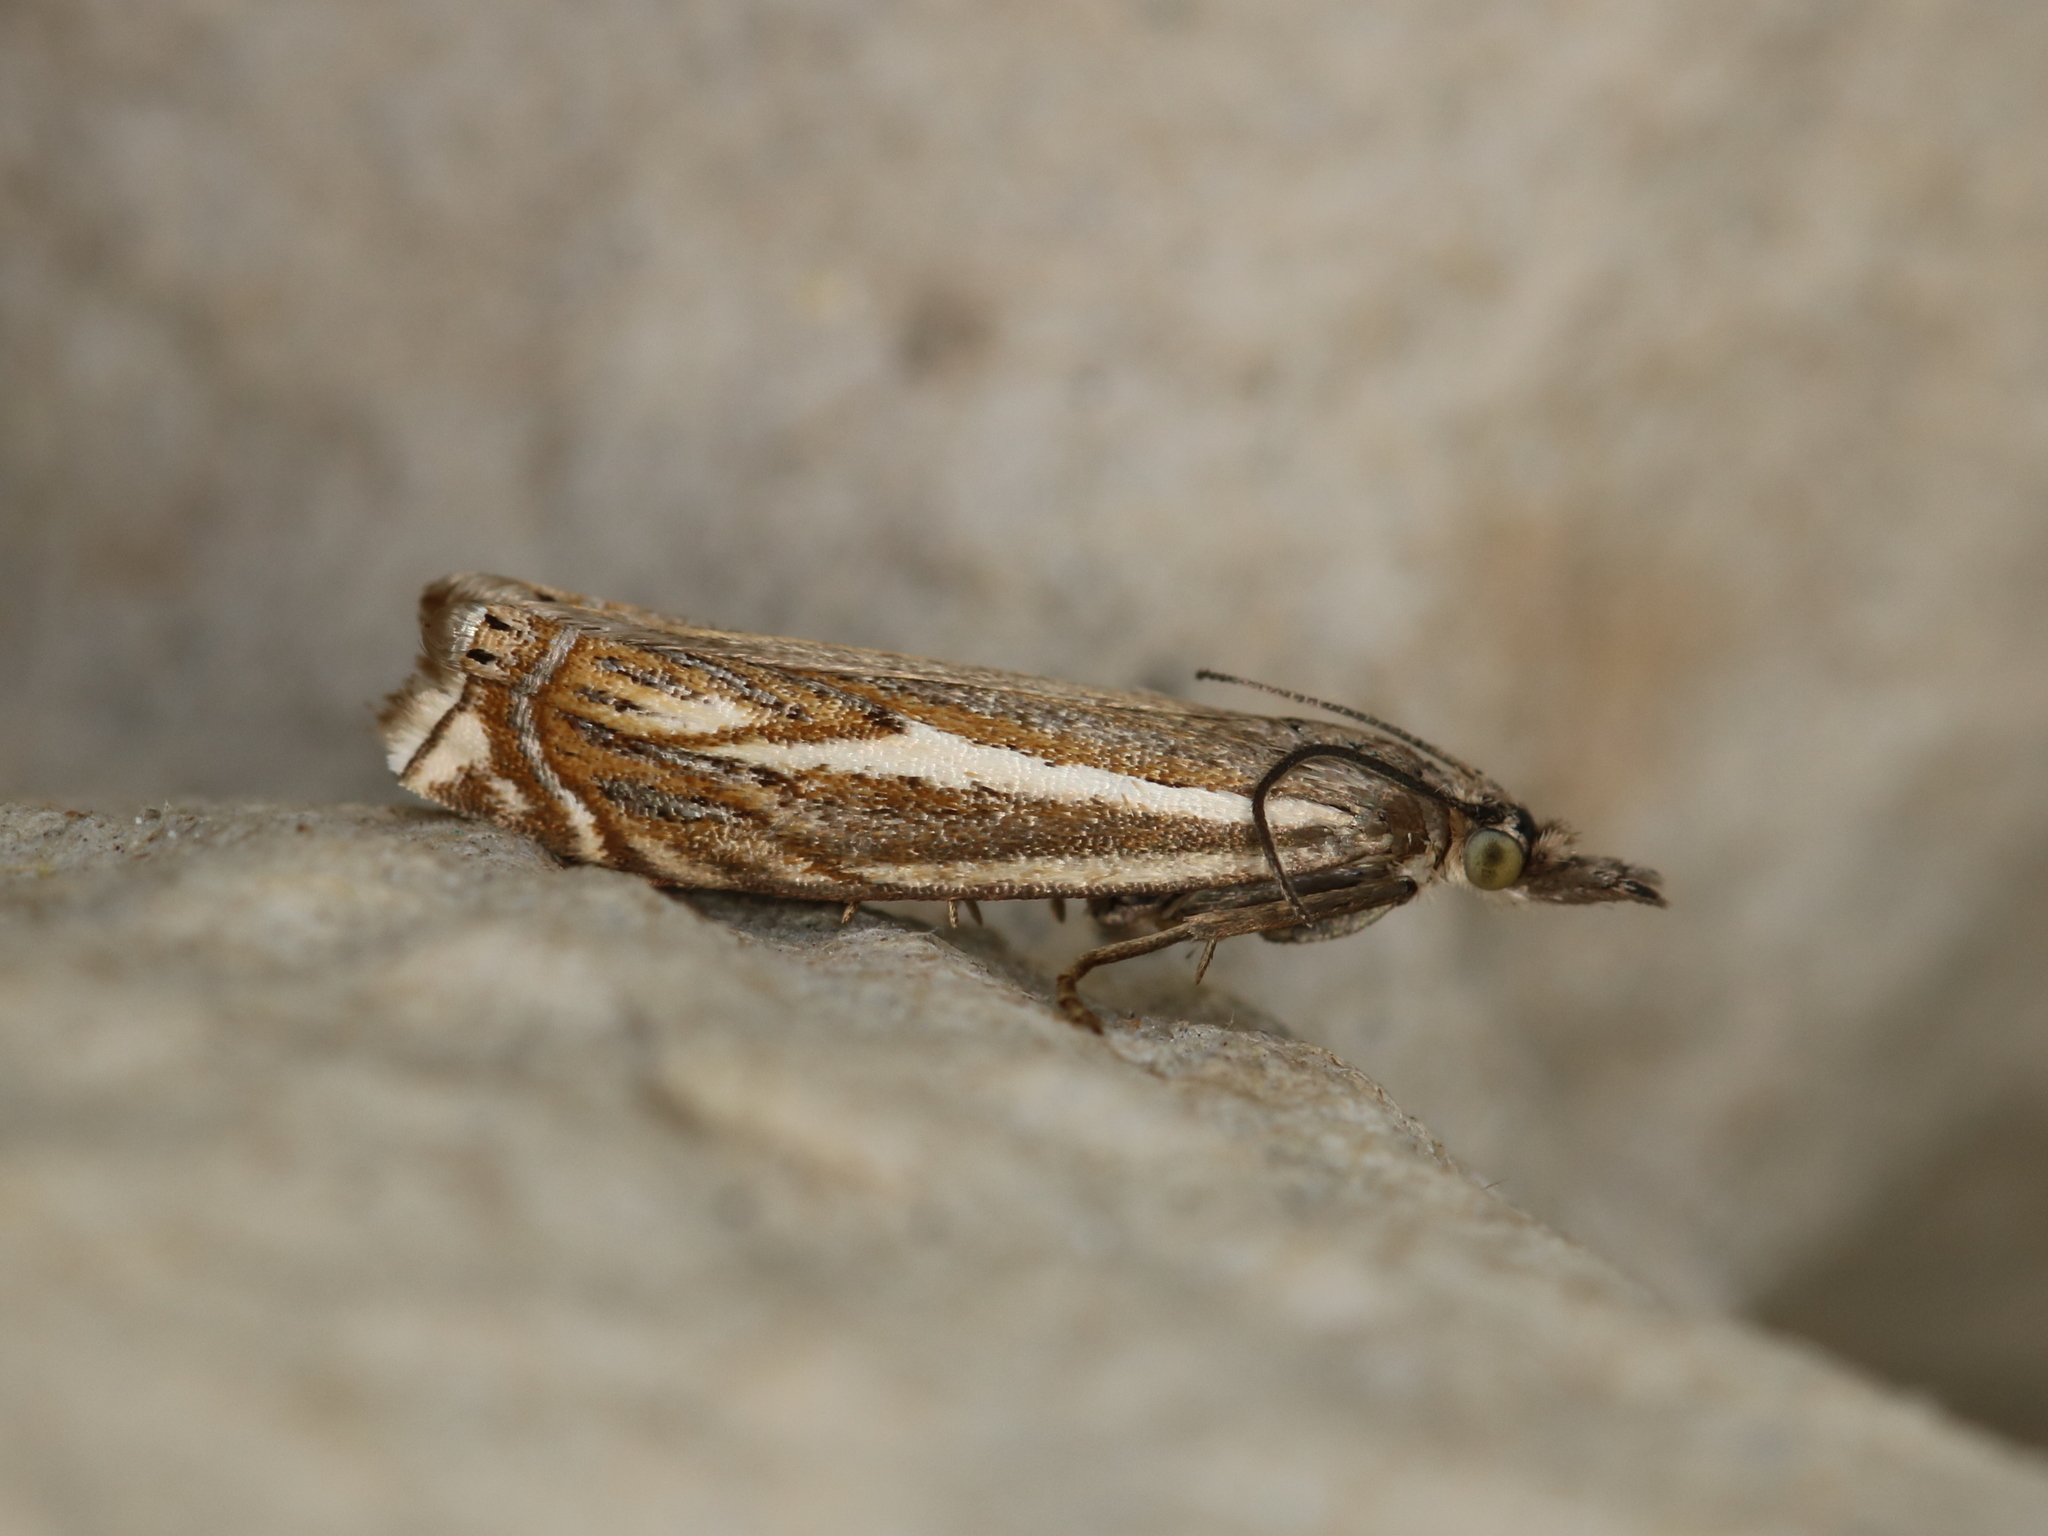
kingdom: Animalia
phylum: Arthropoda
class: Insecta
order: Lepidoptera
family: Crambidae
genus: Crambus
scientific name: Crambus nemorella
